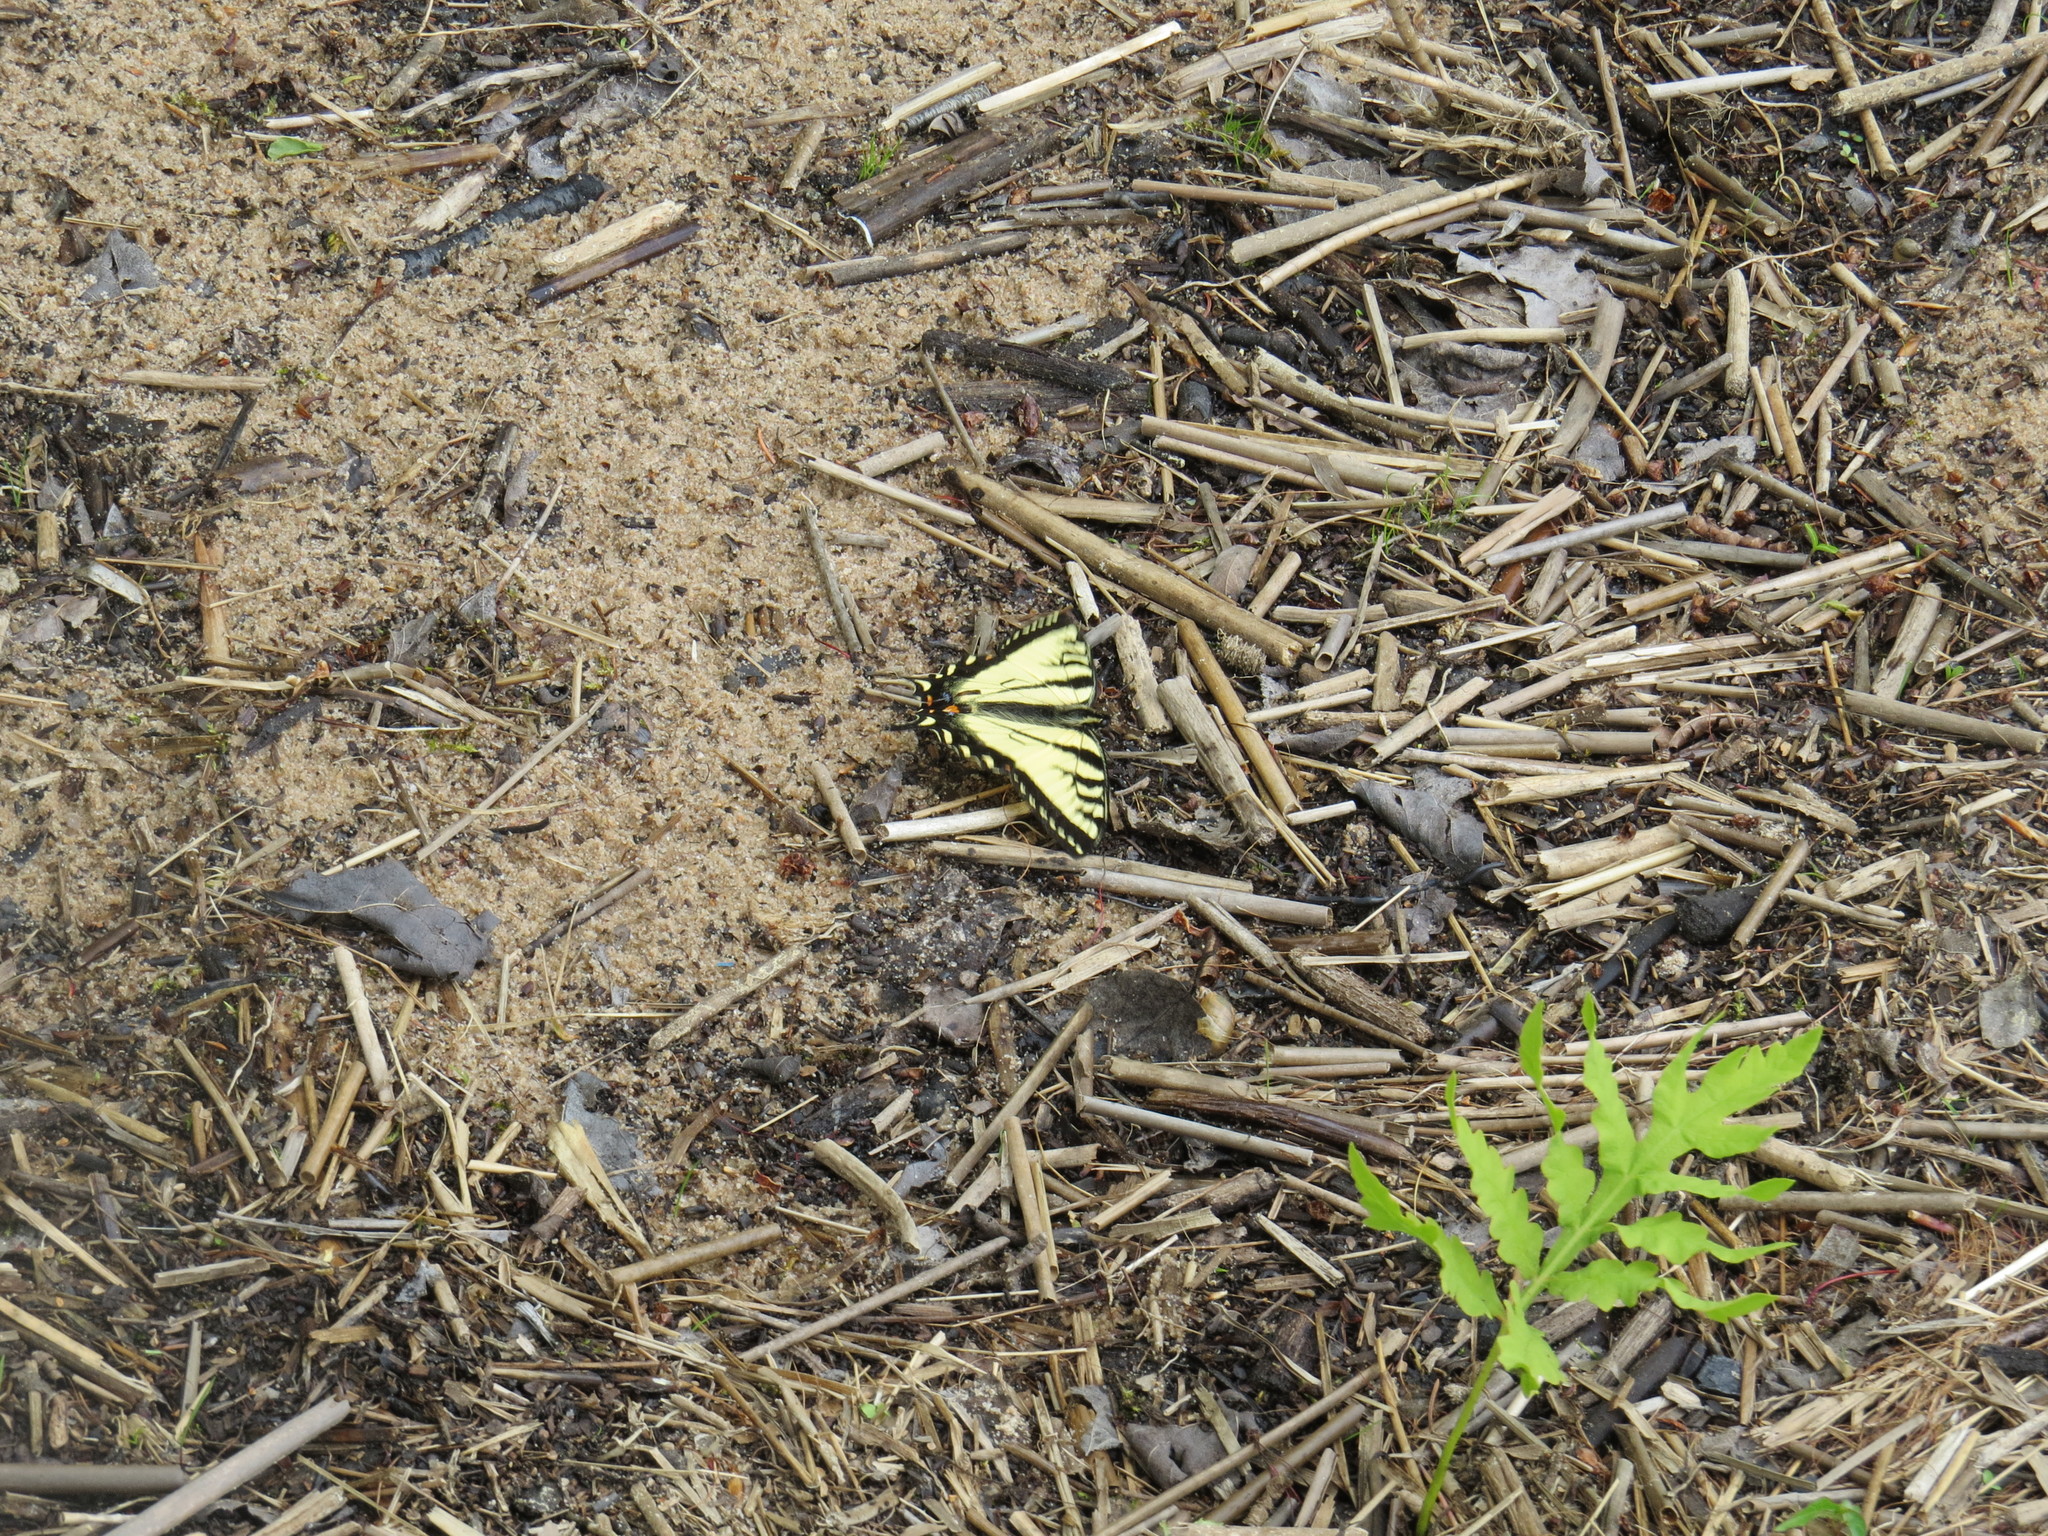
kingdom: Animalia
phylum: Arthropoda
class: Insecta
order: Lepidoptera
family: Papilionidae
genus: Papilio
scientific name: Papilio canadensis
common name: Canadian tiger swallowtail
